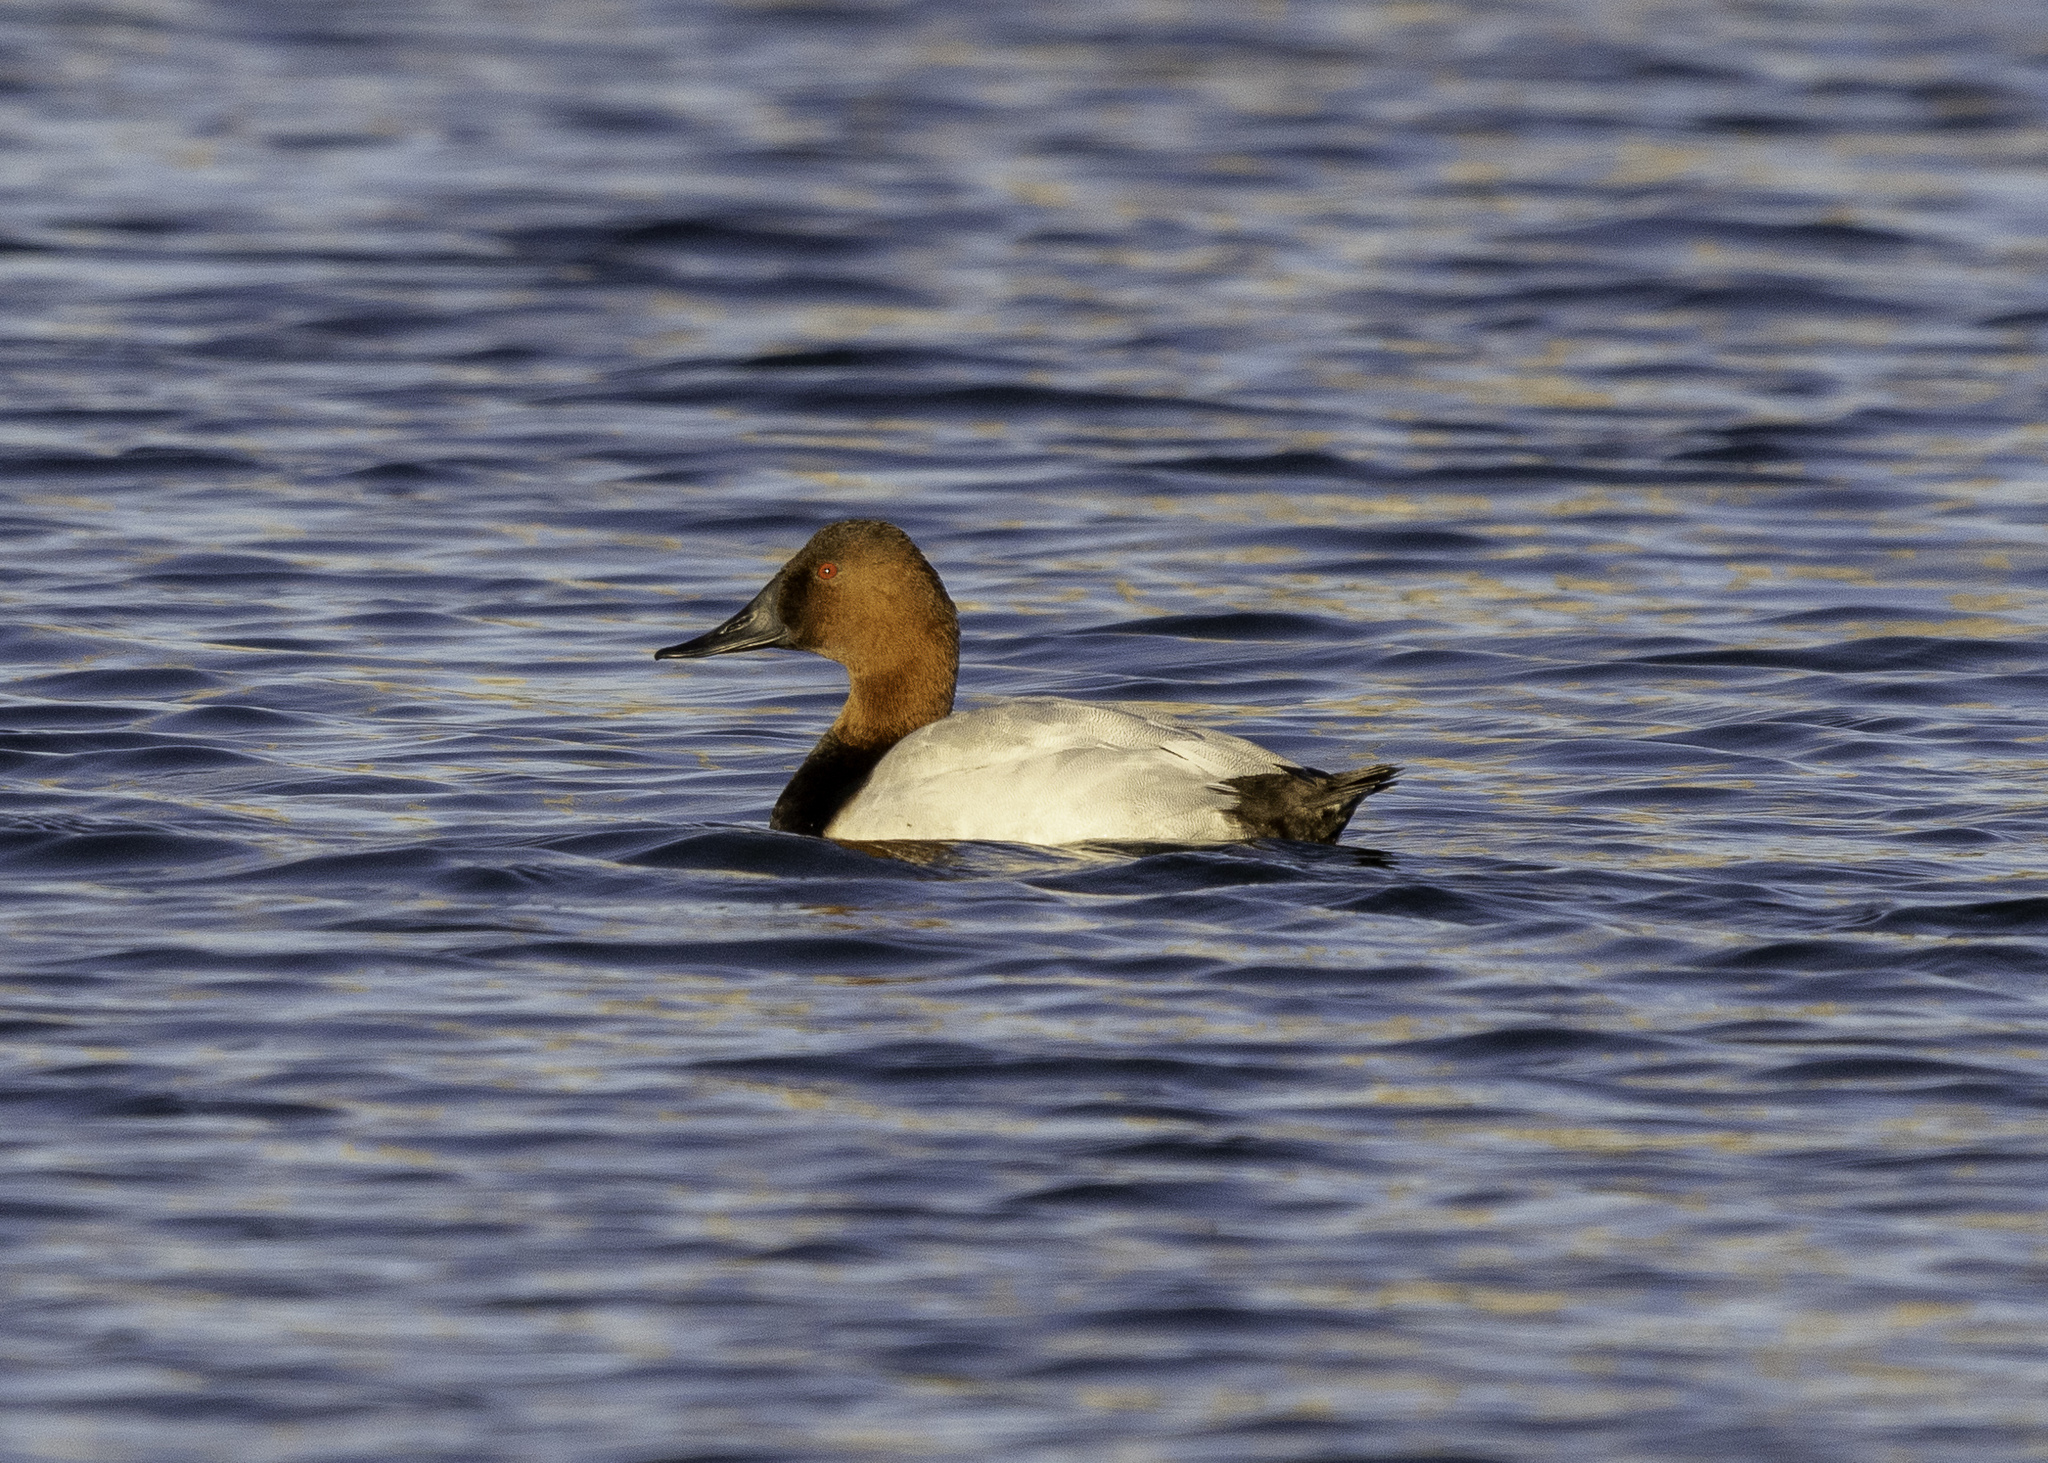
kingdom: Animalia
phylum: Chordata
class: Aves
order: Anseriformes
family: Anatidae
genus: Aythya
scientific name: Aythya valisineria
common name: Canvasback
